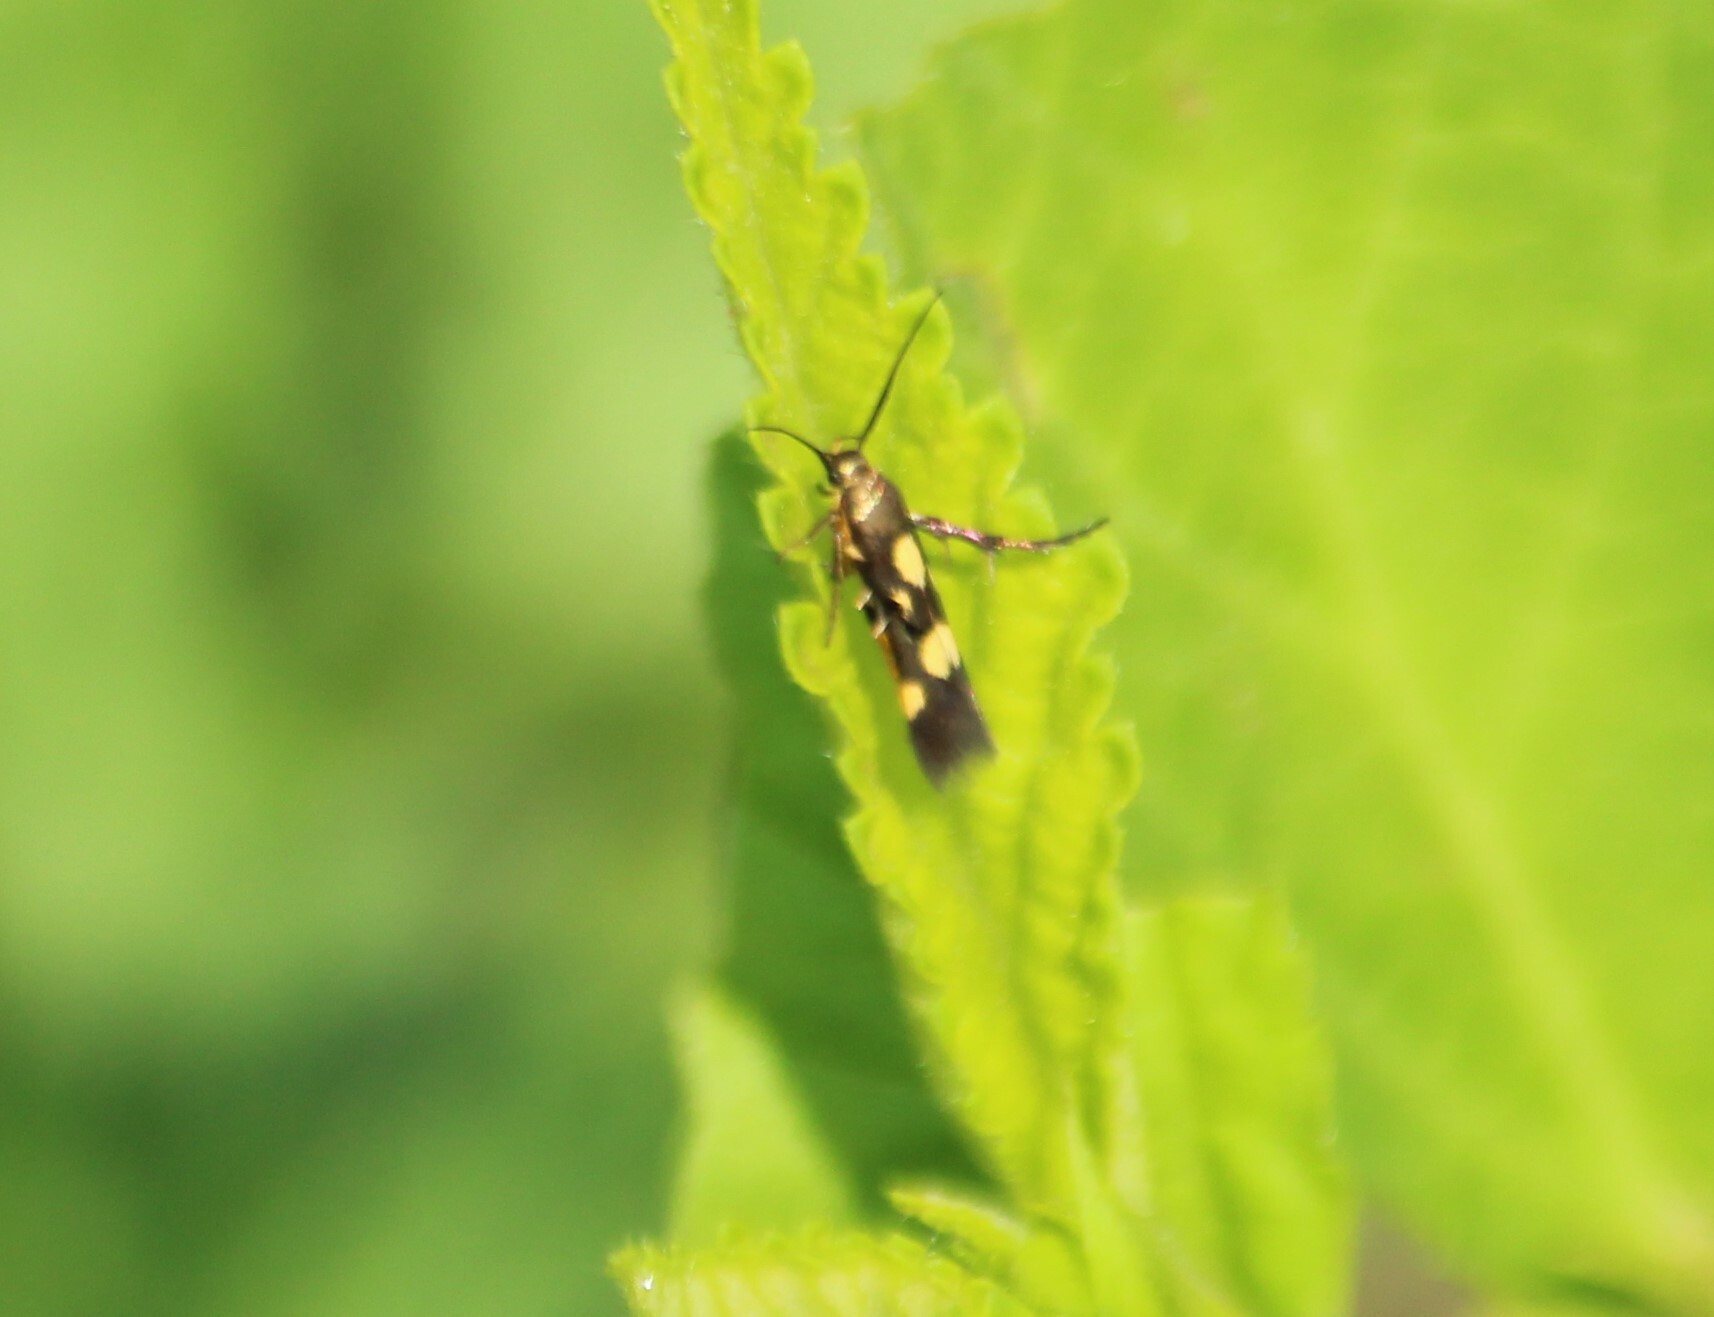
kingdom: Animalia
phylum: Arthropoda
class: Insecta
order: Lepidoptera
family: Scythrididae
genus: Eretmocera
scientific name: Eretmocera impactella
